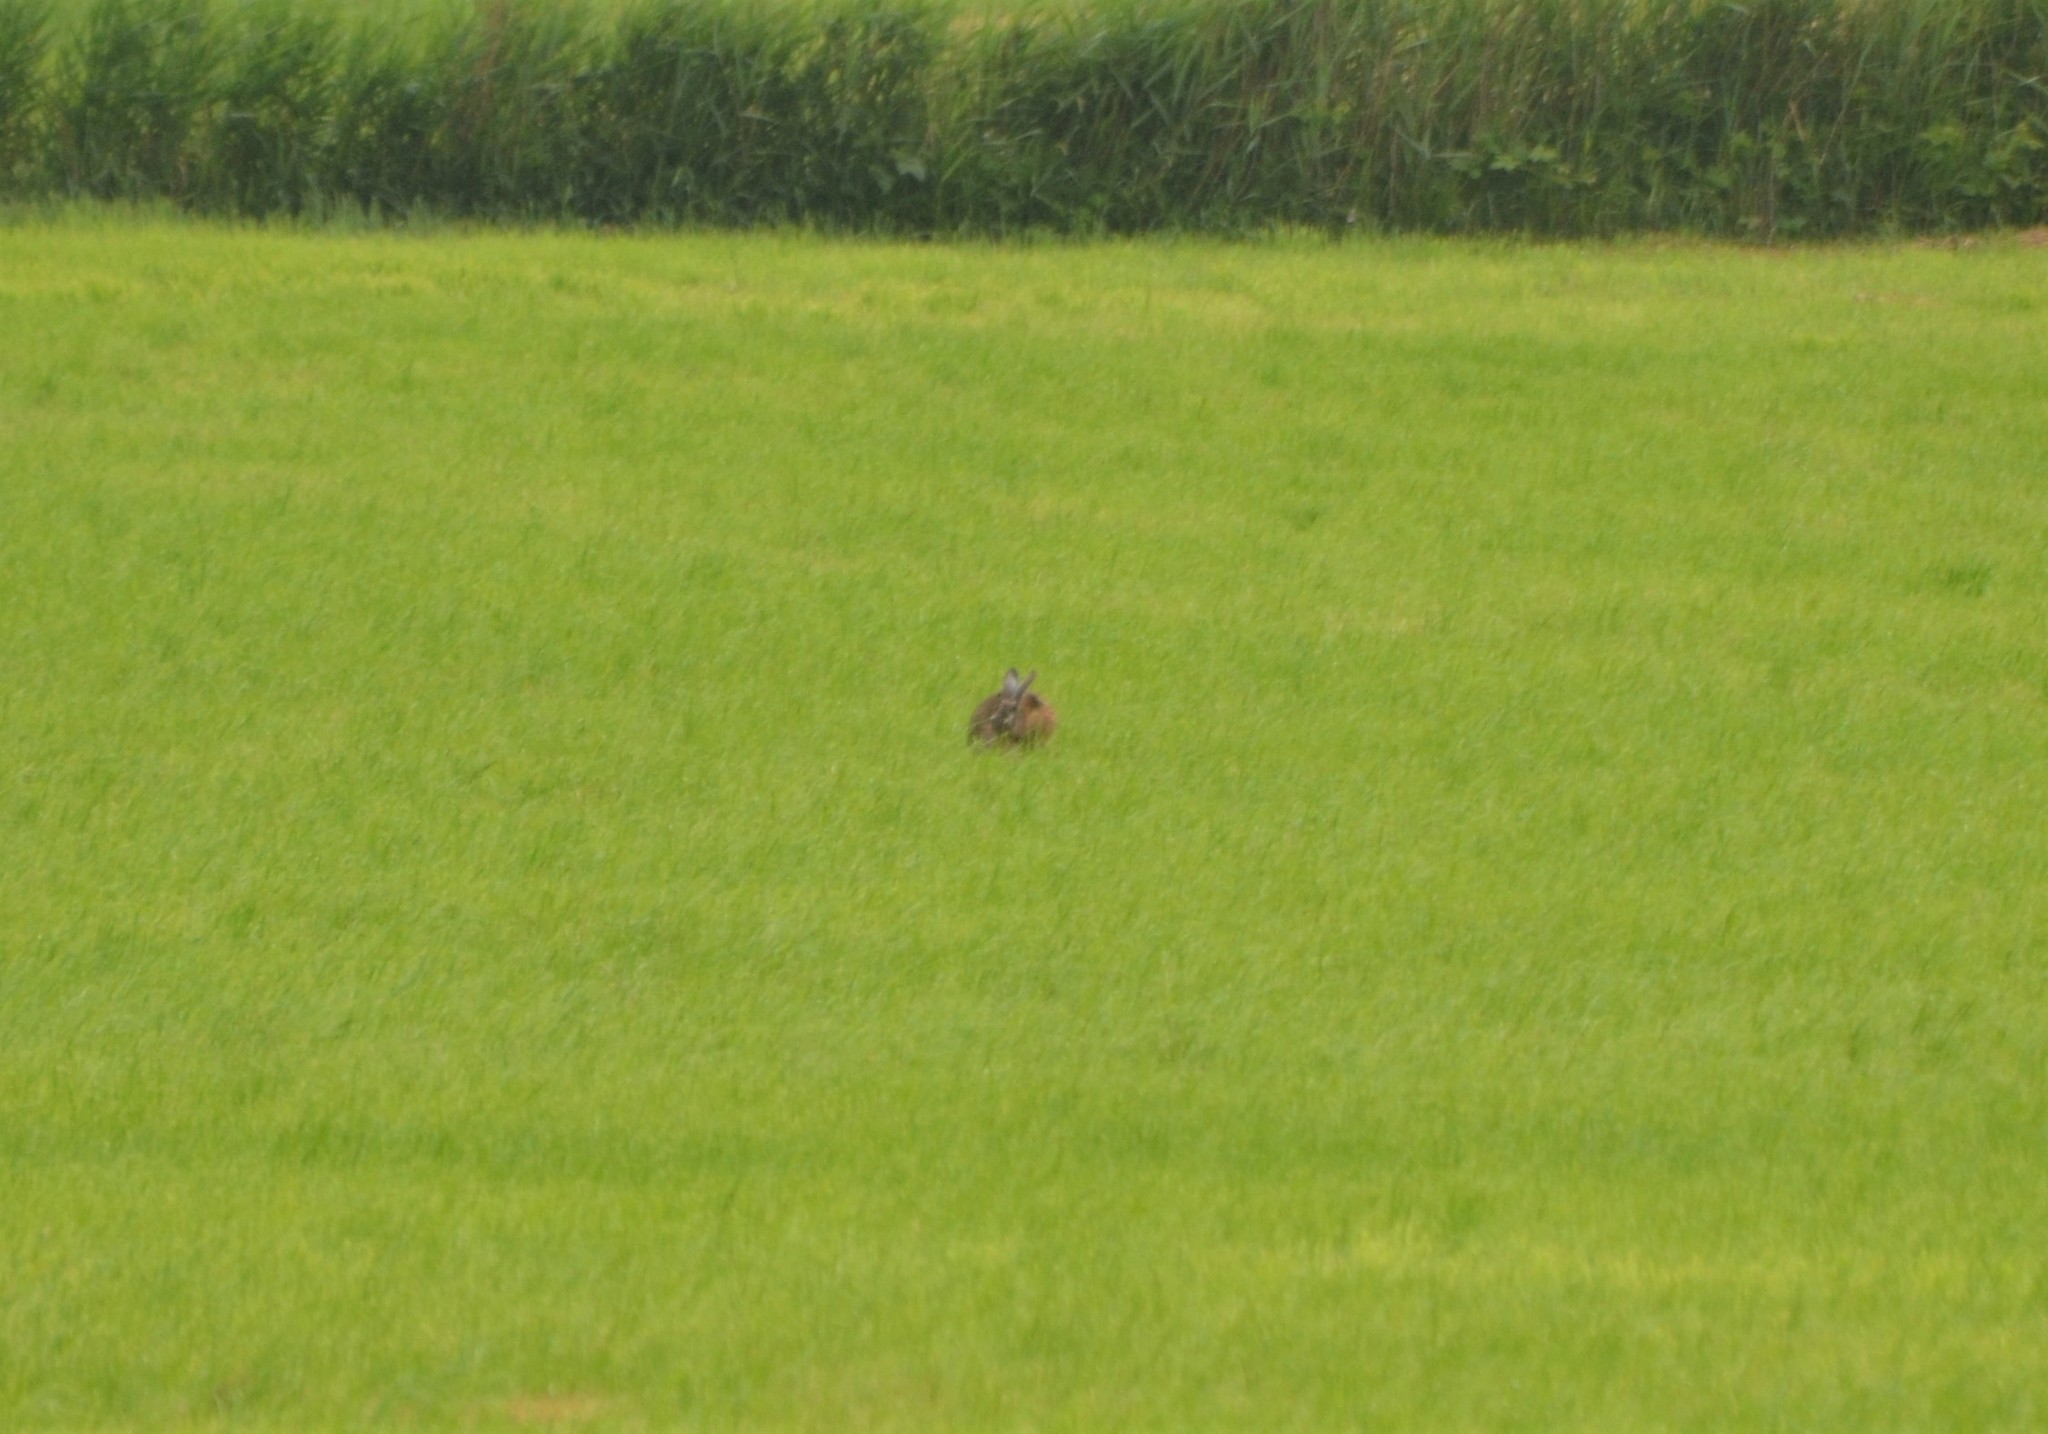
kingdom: Animalia
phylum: Chordata
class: Mammalia
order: Lagomorpha
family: Leporidae
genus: Lepus
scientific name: Lepus europaeus
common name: European hare
